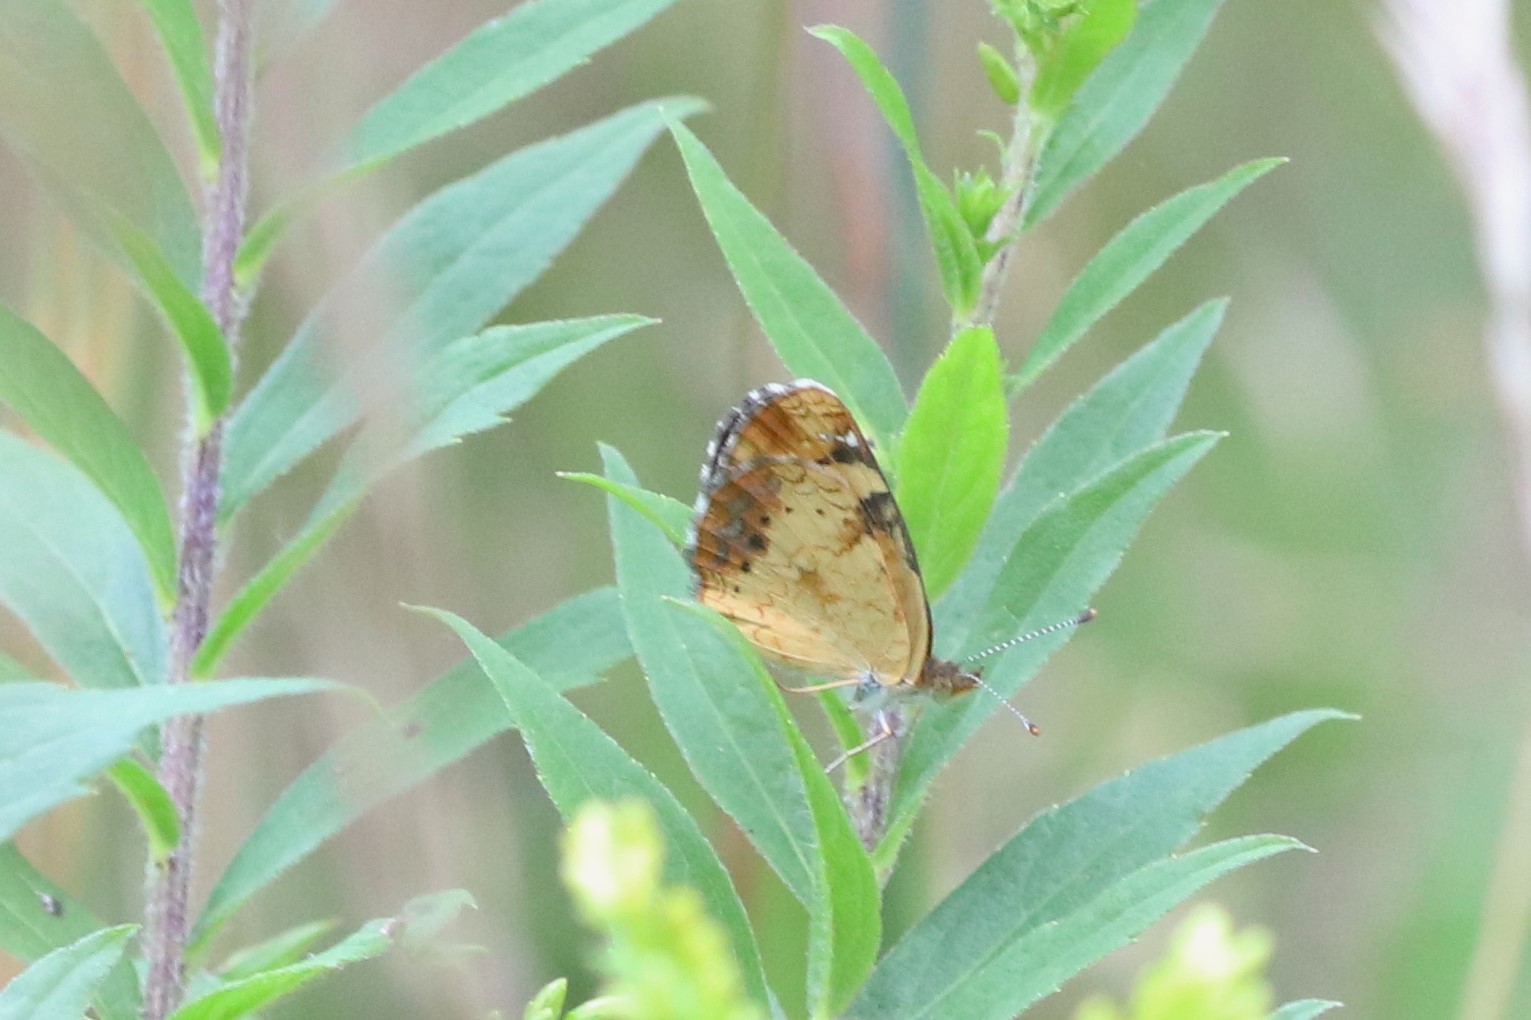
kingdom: Animalia
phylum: Arthropoda
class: Insecta
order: Lepidoptera
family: Nymphalidae
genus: Phyciodes
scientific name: Phyciodes tharos
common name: Pearl crescent
